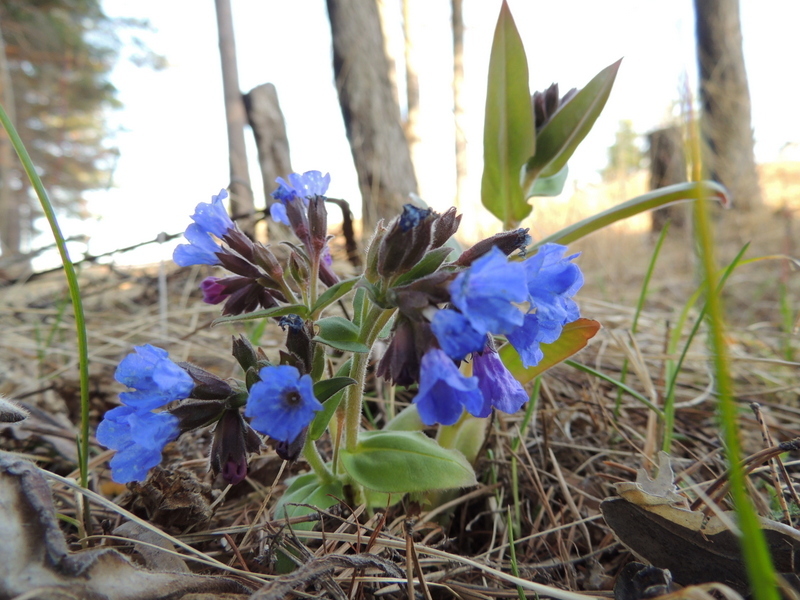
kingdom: Plantae
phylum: Tracheophyta
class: Magnoliopsida
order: Boraginales
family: Boraginaceae
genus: Pulmonaria
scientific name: Pulmonaria mollis
